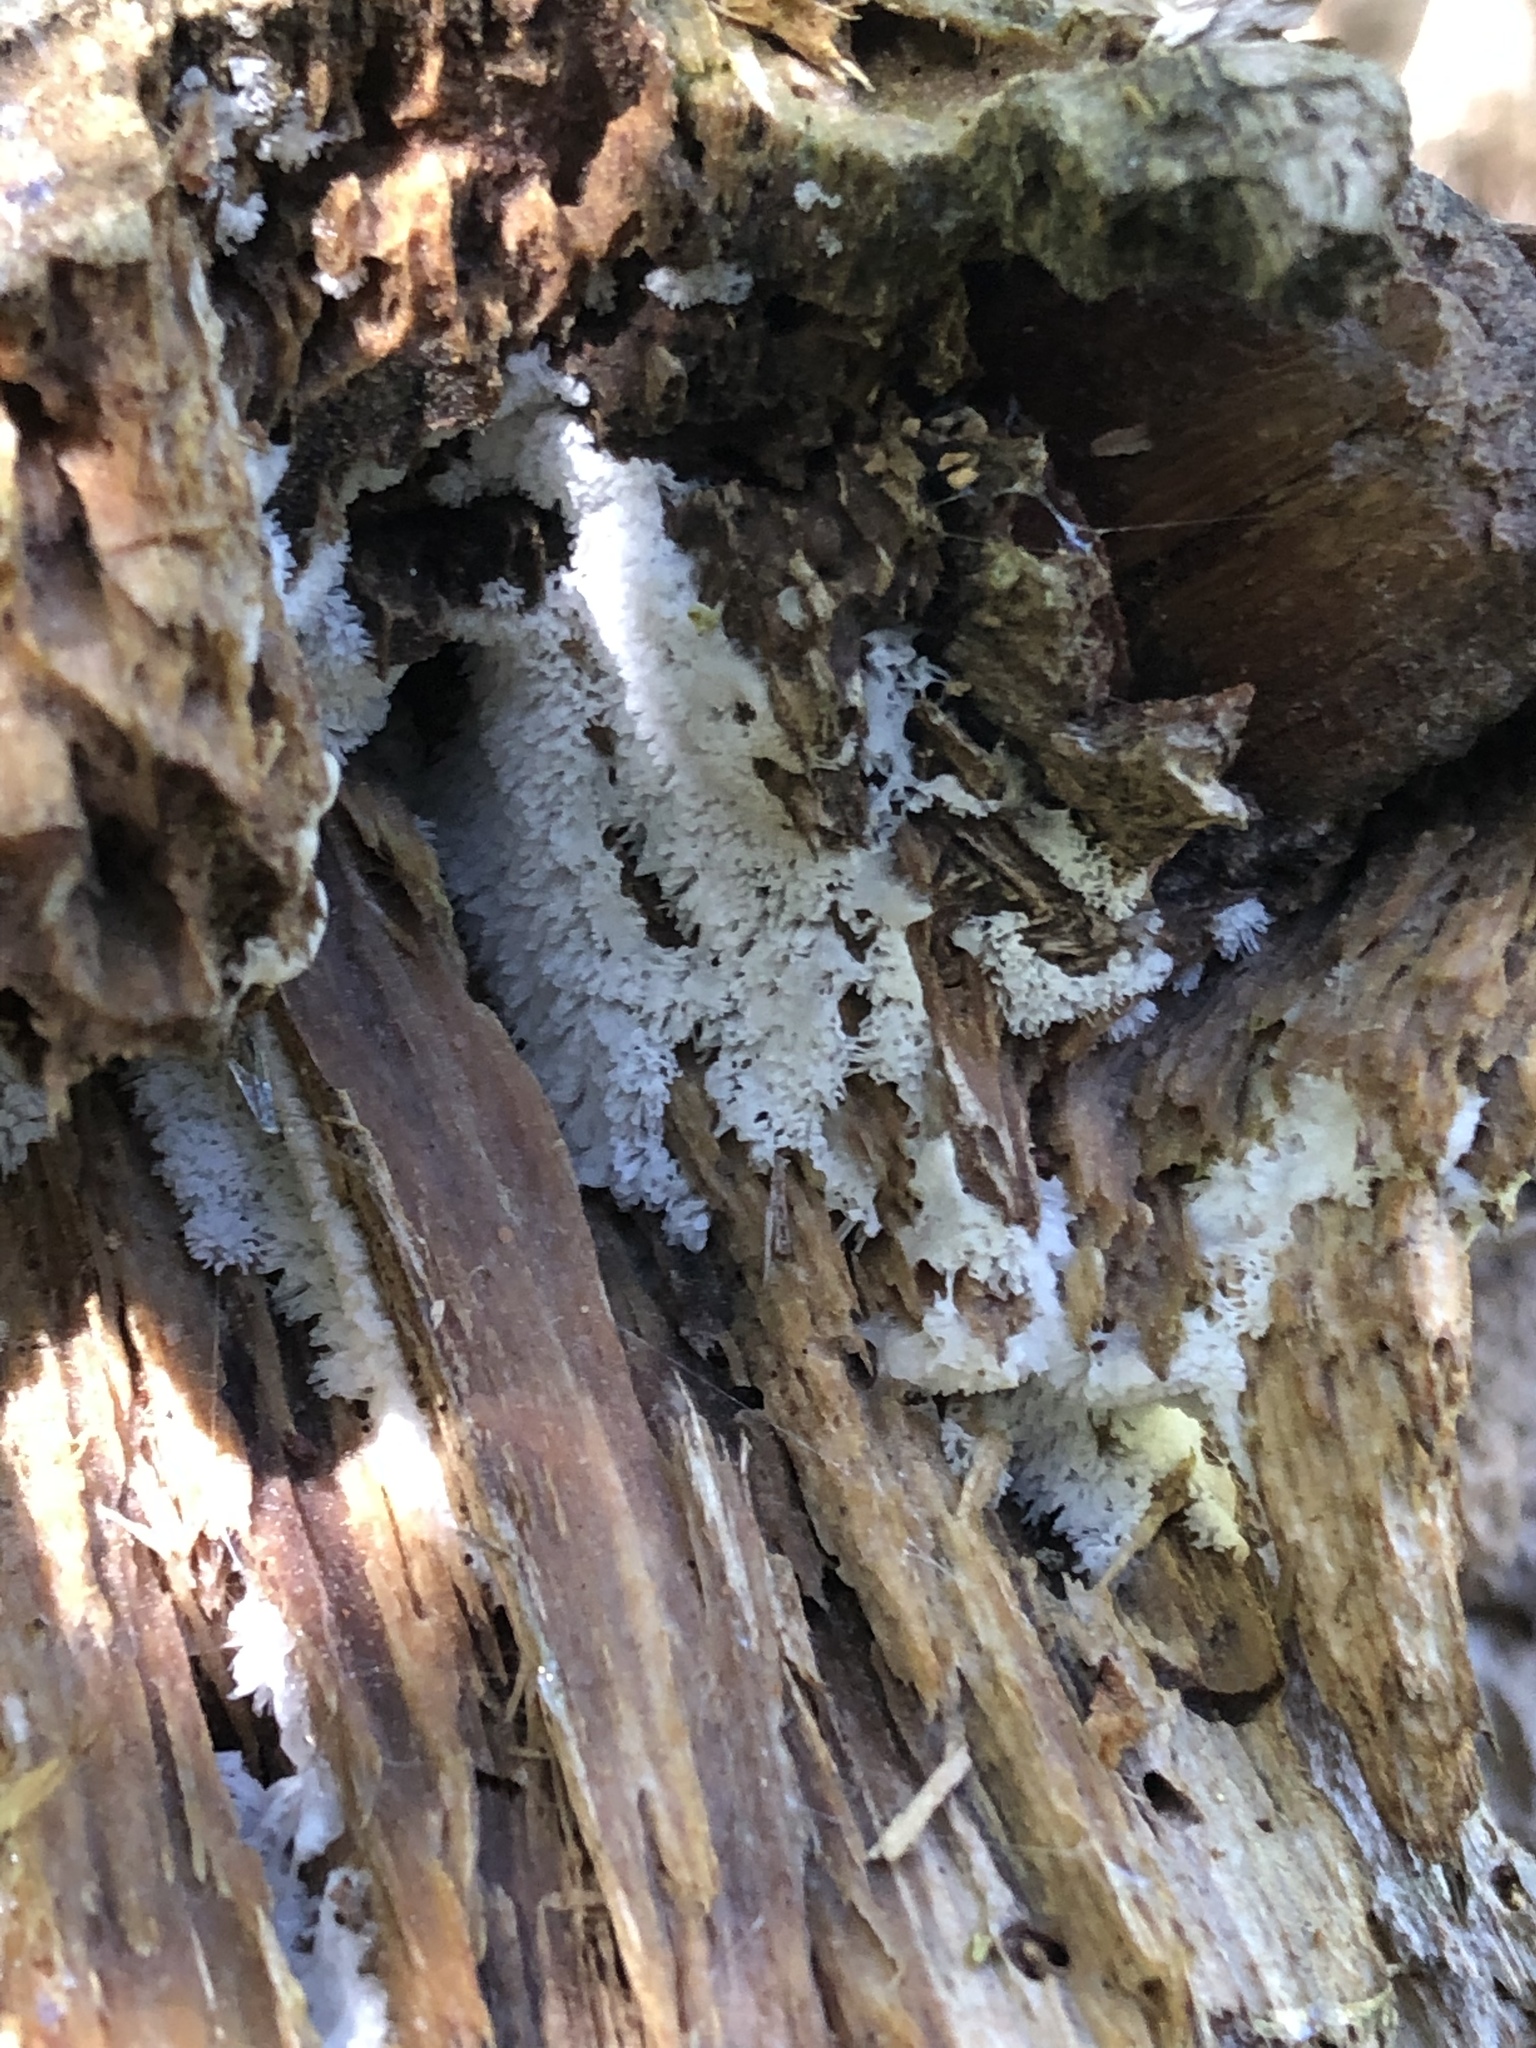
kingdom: Protozoa
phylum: Mycetozoa
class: Protosteliomycetes
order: Ceratiomyxales
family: Ceratiomyxaceae
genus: Ceratiomyxa
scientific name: Ceratiomyxa fruticulosa
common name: Honeycomb coral slime mold
